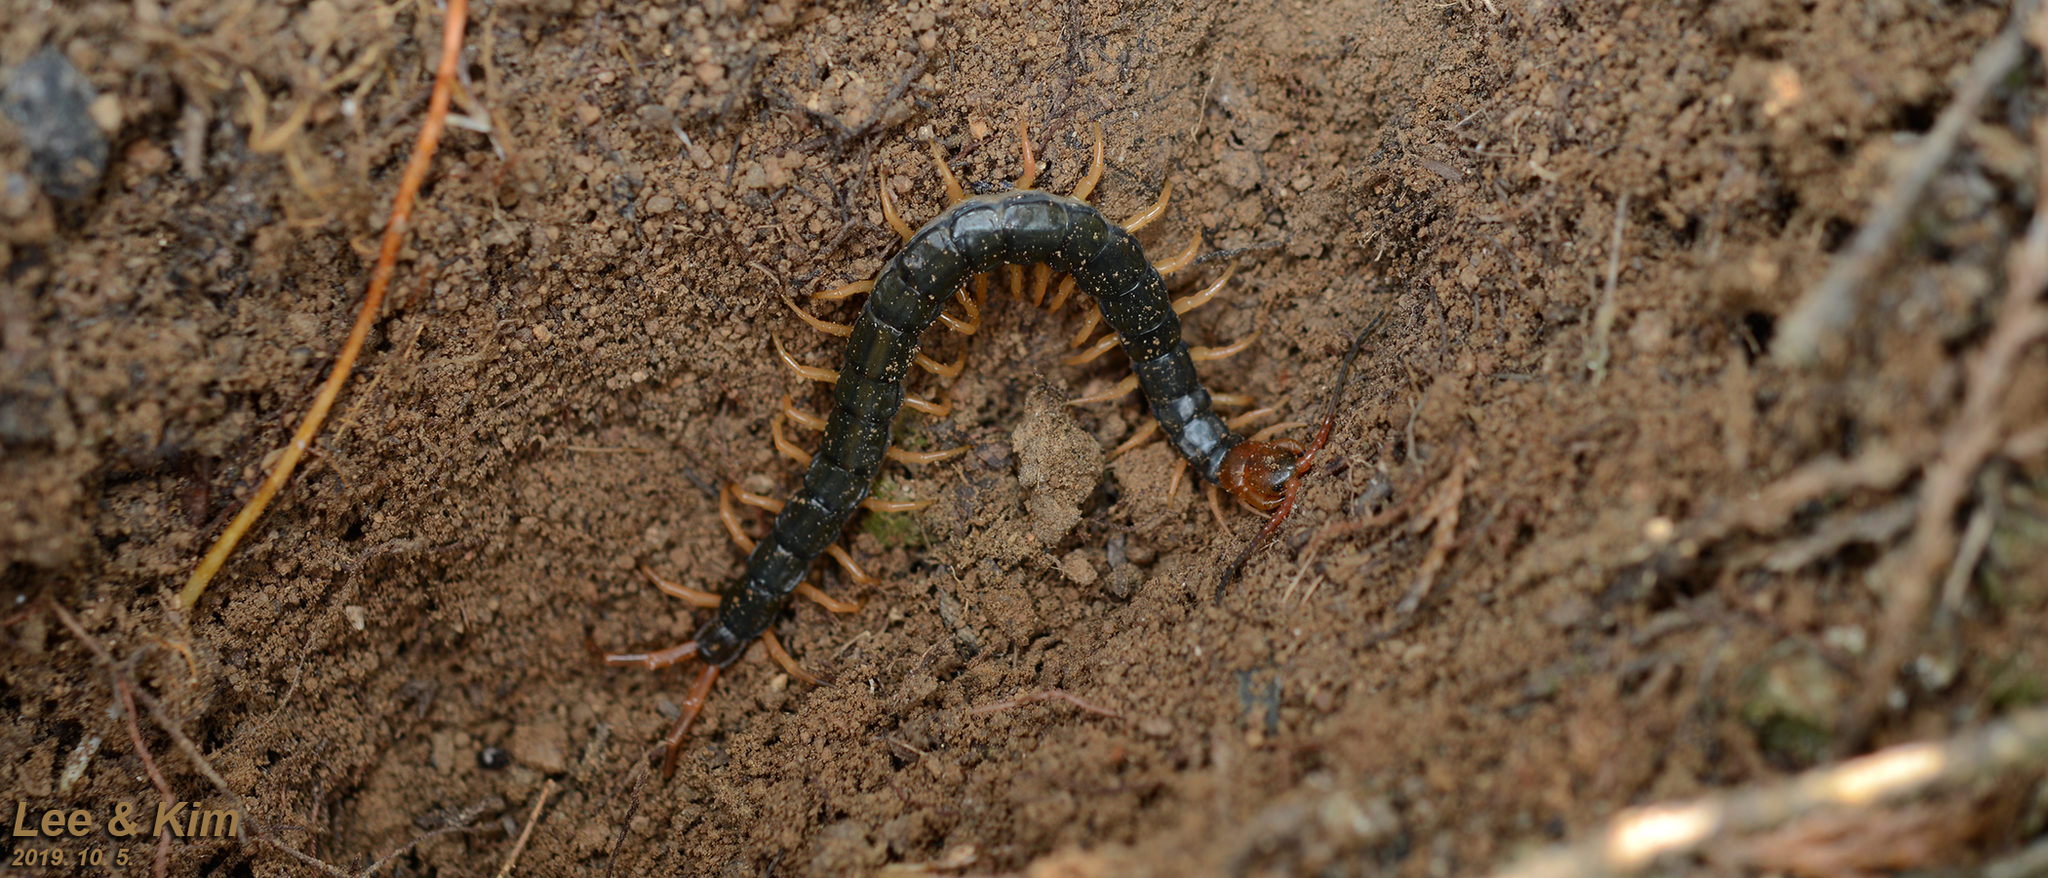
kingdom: Animalia
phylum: Arthropoda
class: Chilopoda
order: Scolopendromorpha
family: Scolopendridae
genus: Scolopendra
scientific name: Scolopendra mutilans
